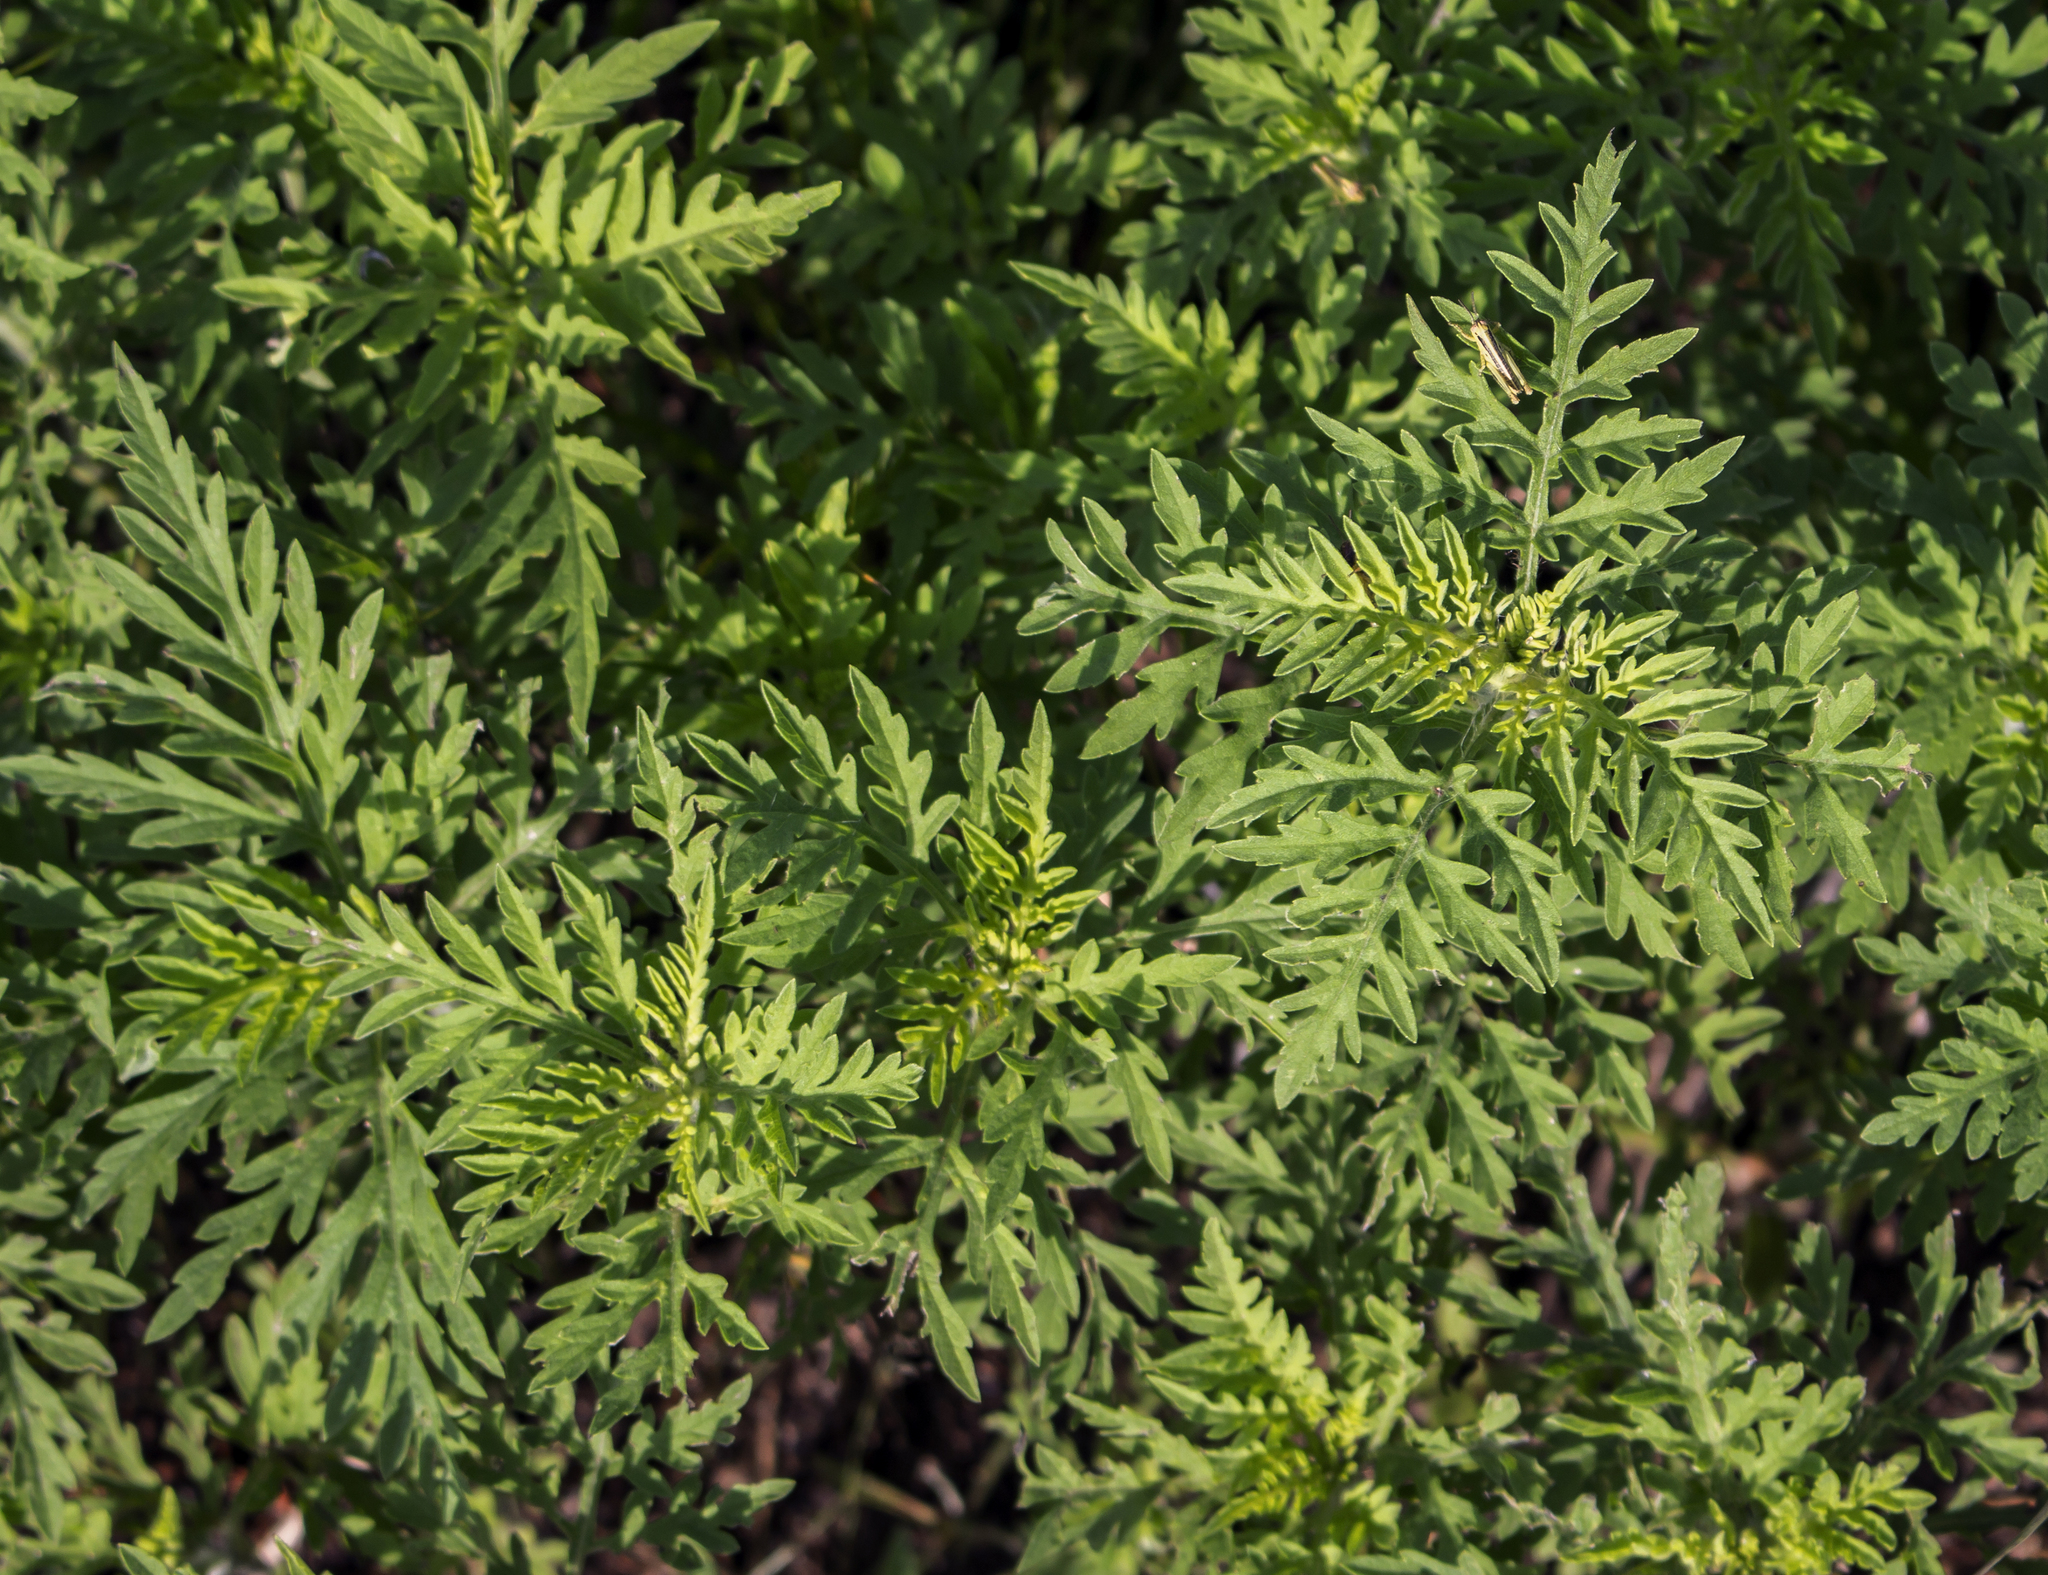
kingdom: Plantae
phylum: Tracheophyta
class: Magnoliopsida
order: Asterales
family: Asteraceae
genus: Ambrosia
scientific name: Ambrosia artemisiifolia
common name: Annual ragweed
